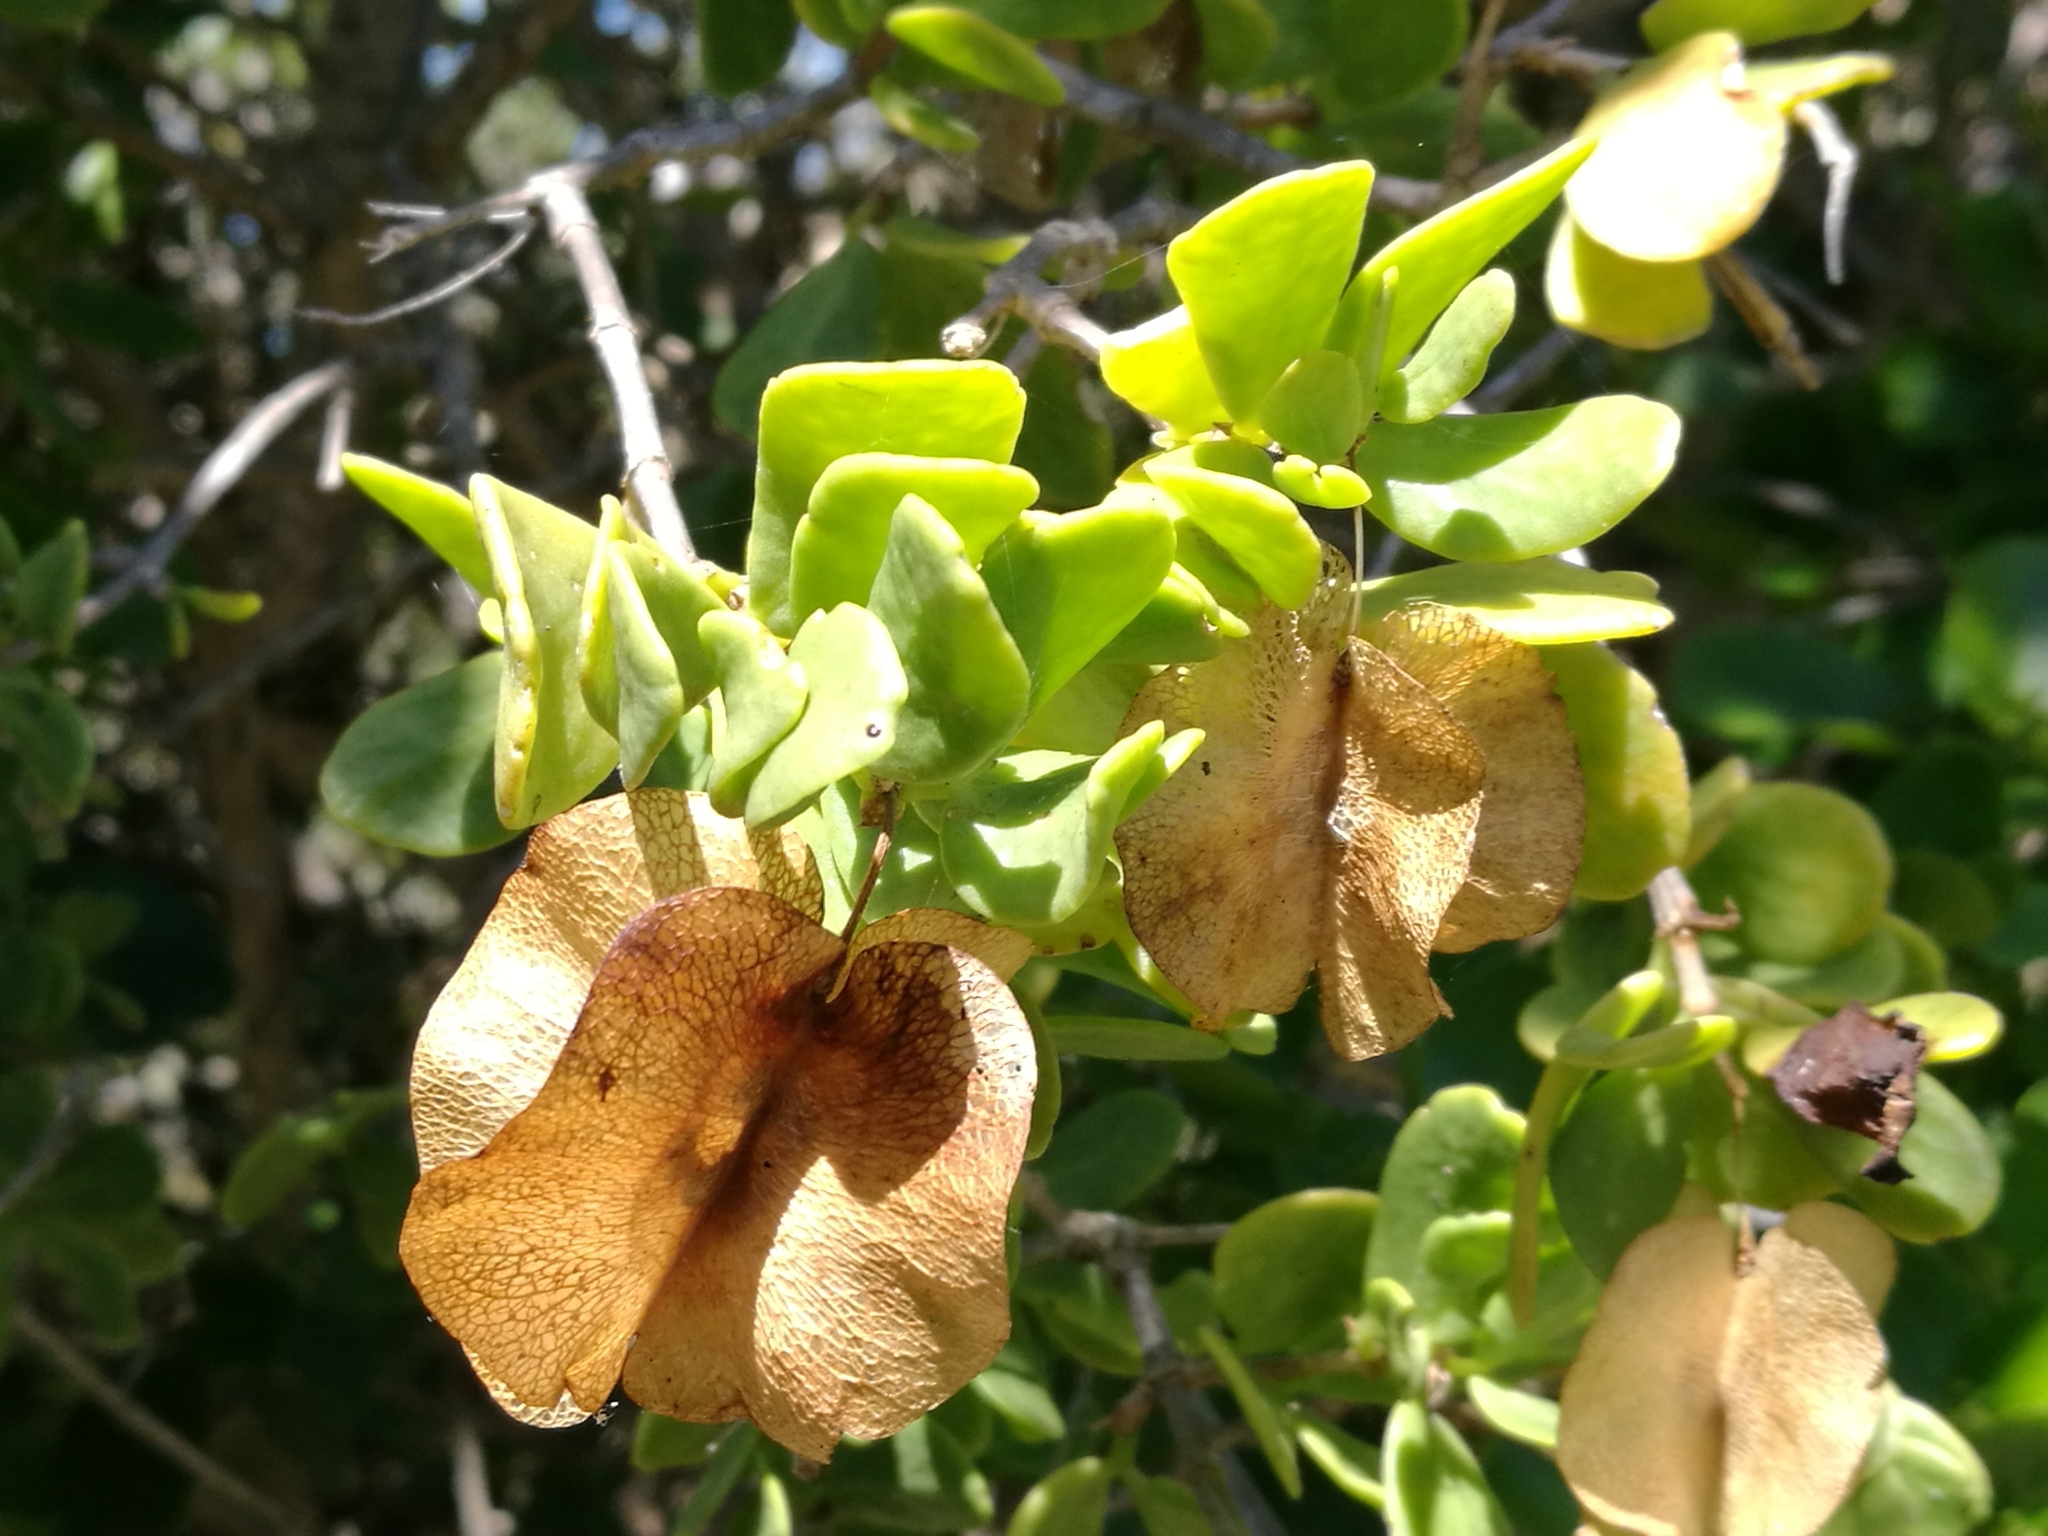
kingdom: Plantae
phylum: Tracheophyta
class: Magnoliopsida
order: Zygophyllales
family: Zygophyllaceae
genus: Roepera
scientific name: Roepera morgsana
